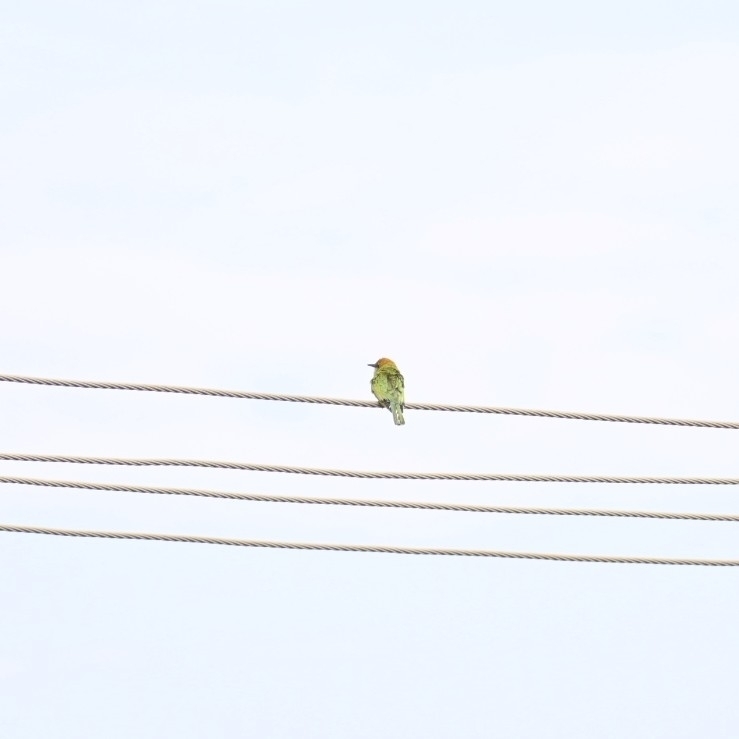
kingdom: Animalia
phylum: Chordata
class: Aves
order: Coraciiformes
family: Meropidae
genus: Merops
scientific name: Merops orientalis
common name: Green bee-eater
